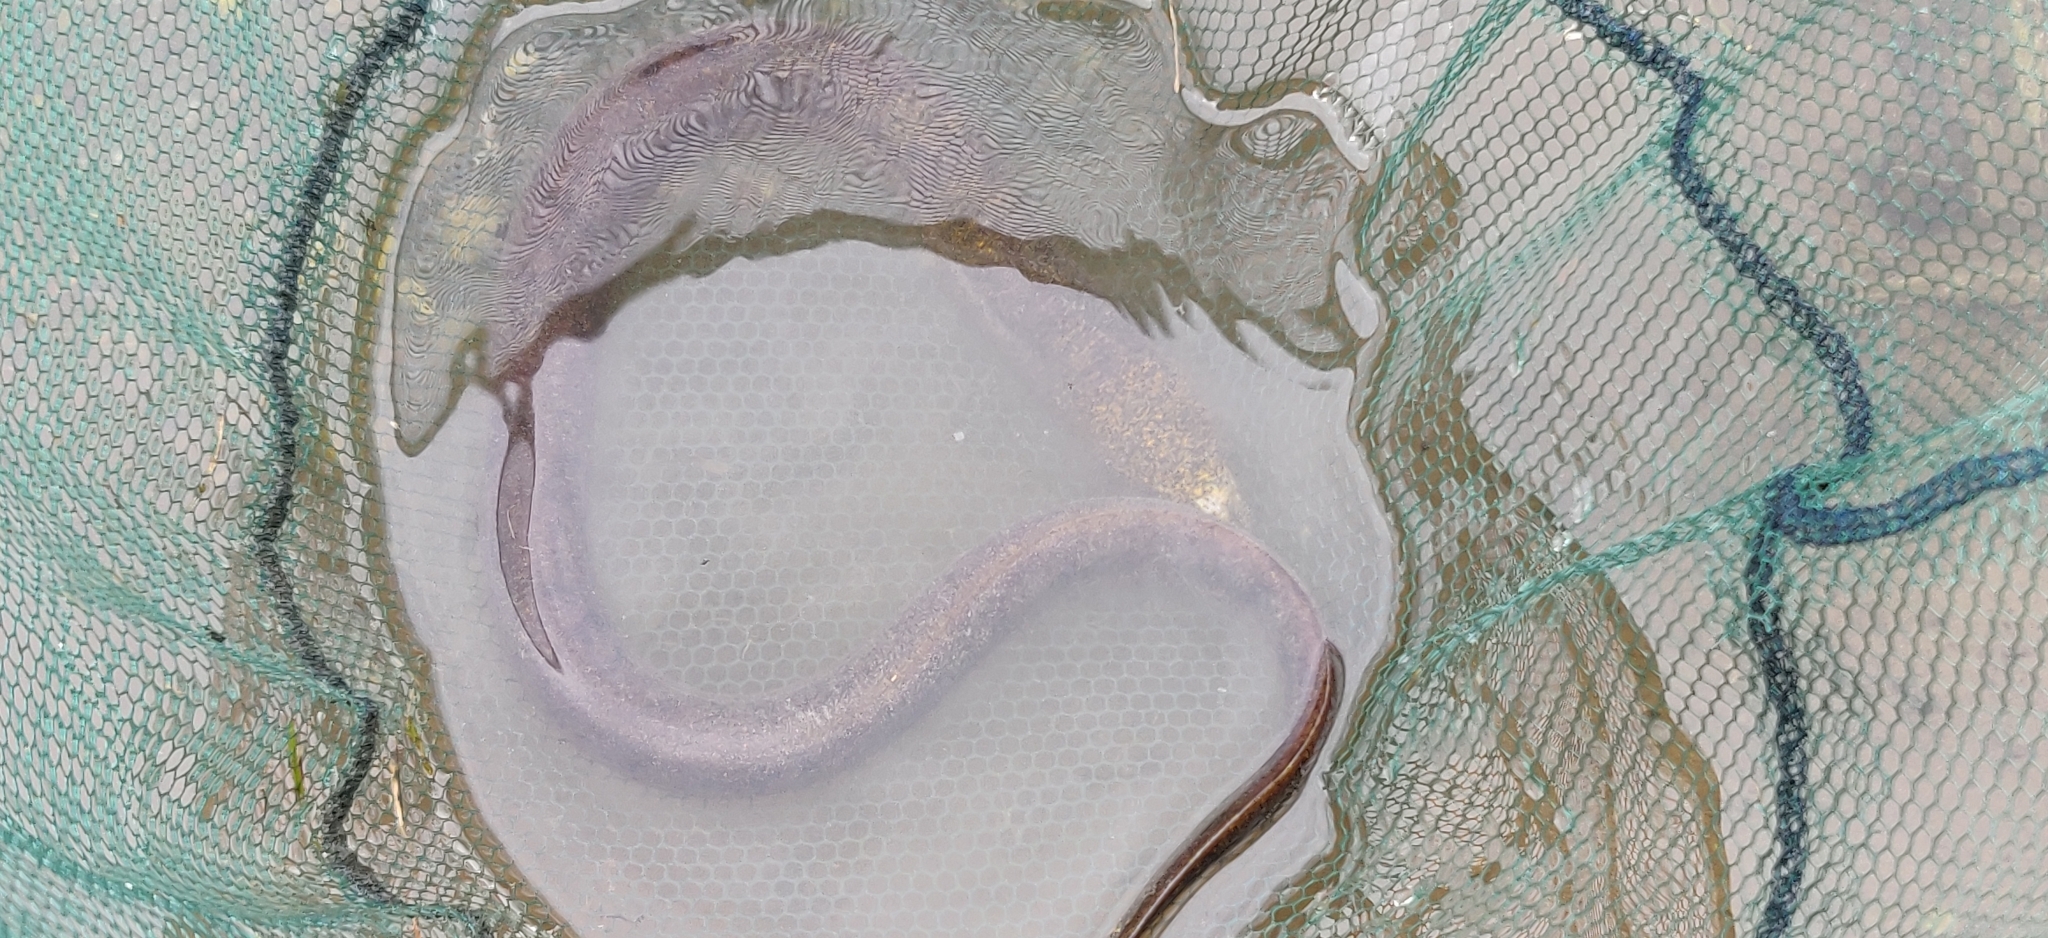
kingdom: Animalia
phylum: Chordata
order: Synbranchiformes
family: Synbranchidae
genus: Synbranchus
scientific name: Synbranchus marmoratus
